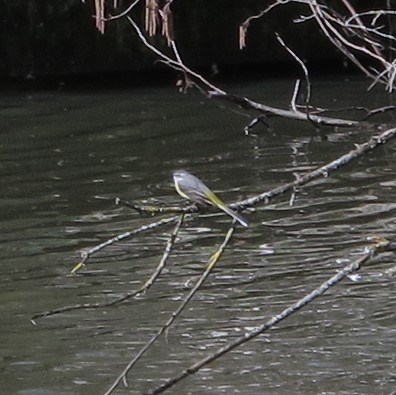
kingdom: Animalia
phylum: Chordata
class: Aves
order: Passeriformes
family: Motacillidae
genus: Motacilla
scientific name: Motacilla cinerea
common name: Grey wagtail
